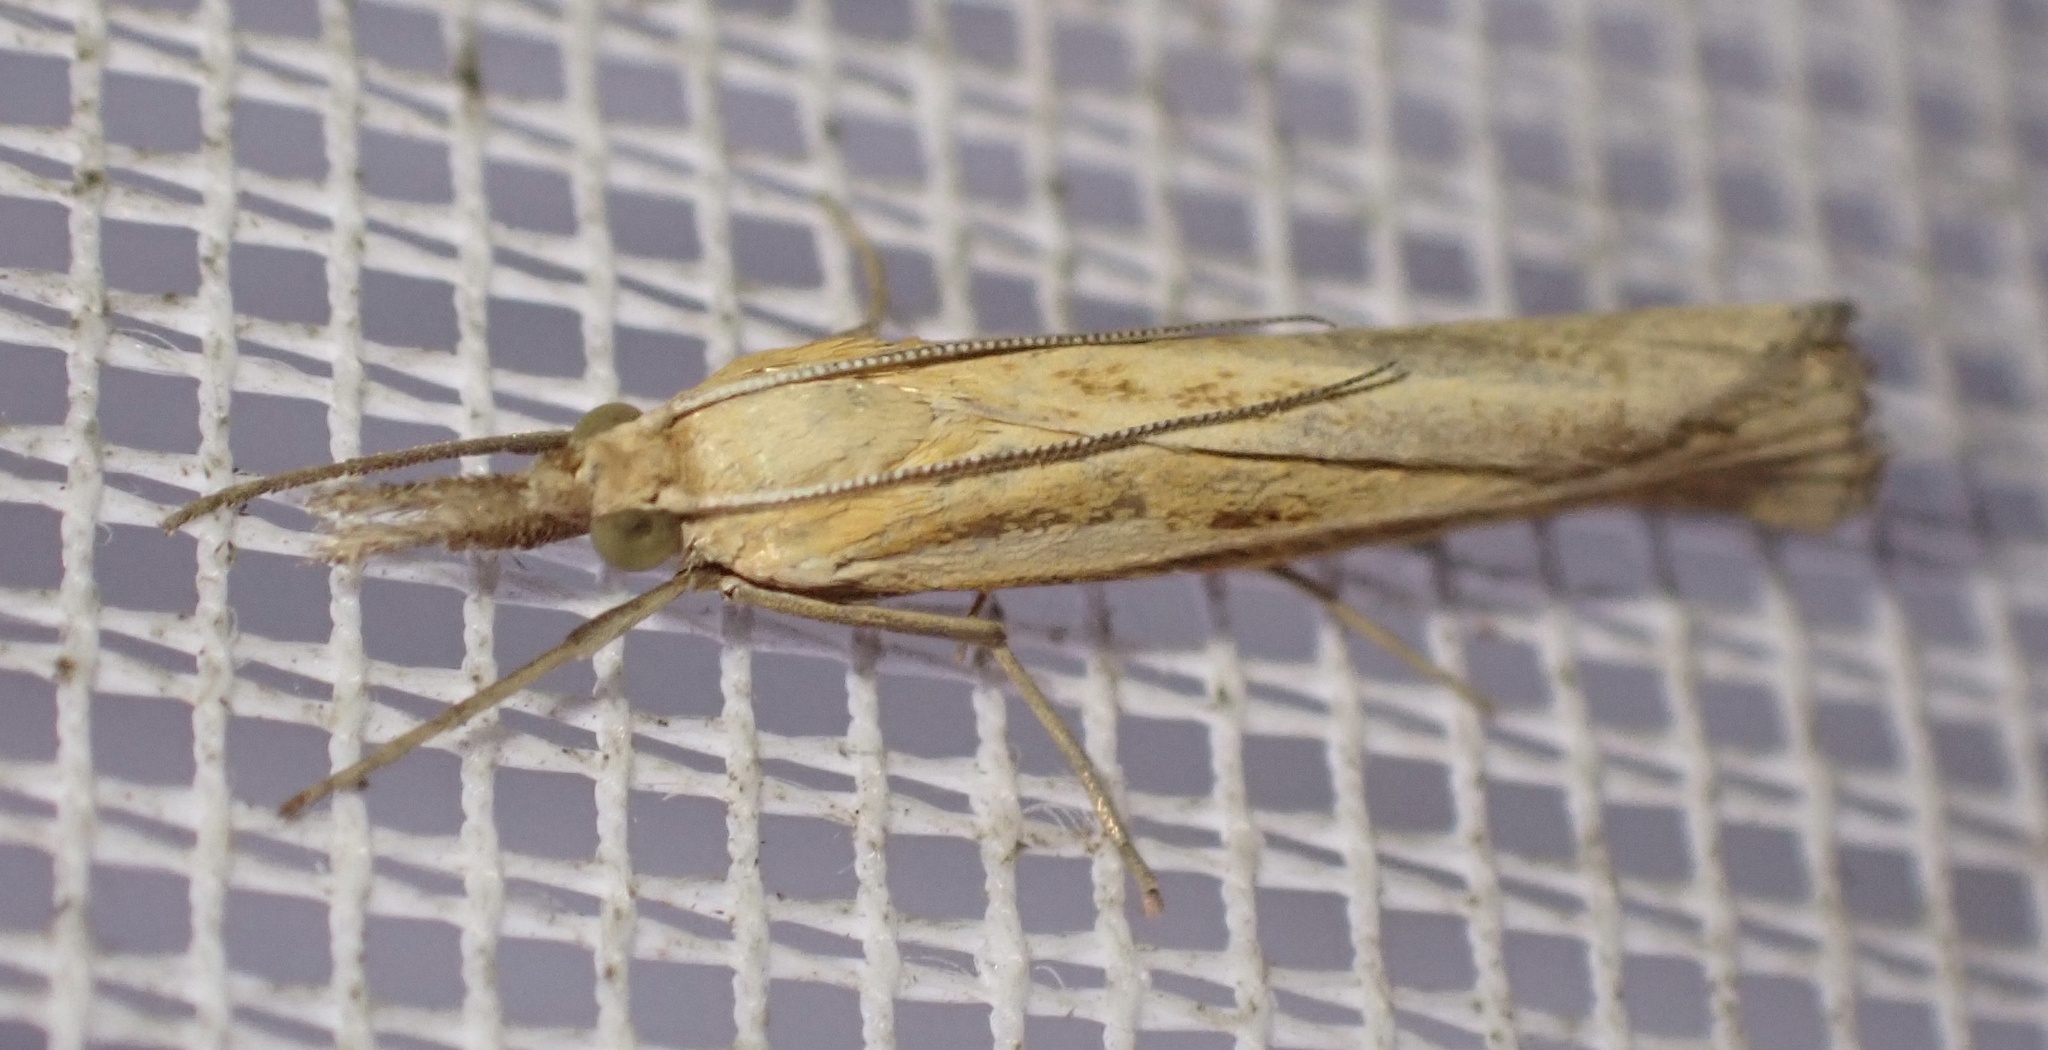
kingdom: Animalia
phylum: Arthropoda
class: Insecta
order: Lepidoptera
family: Crambidae
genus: Agriphila
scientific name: Agriphila tristellus
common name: Common grass-veneer
